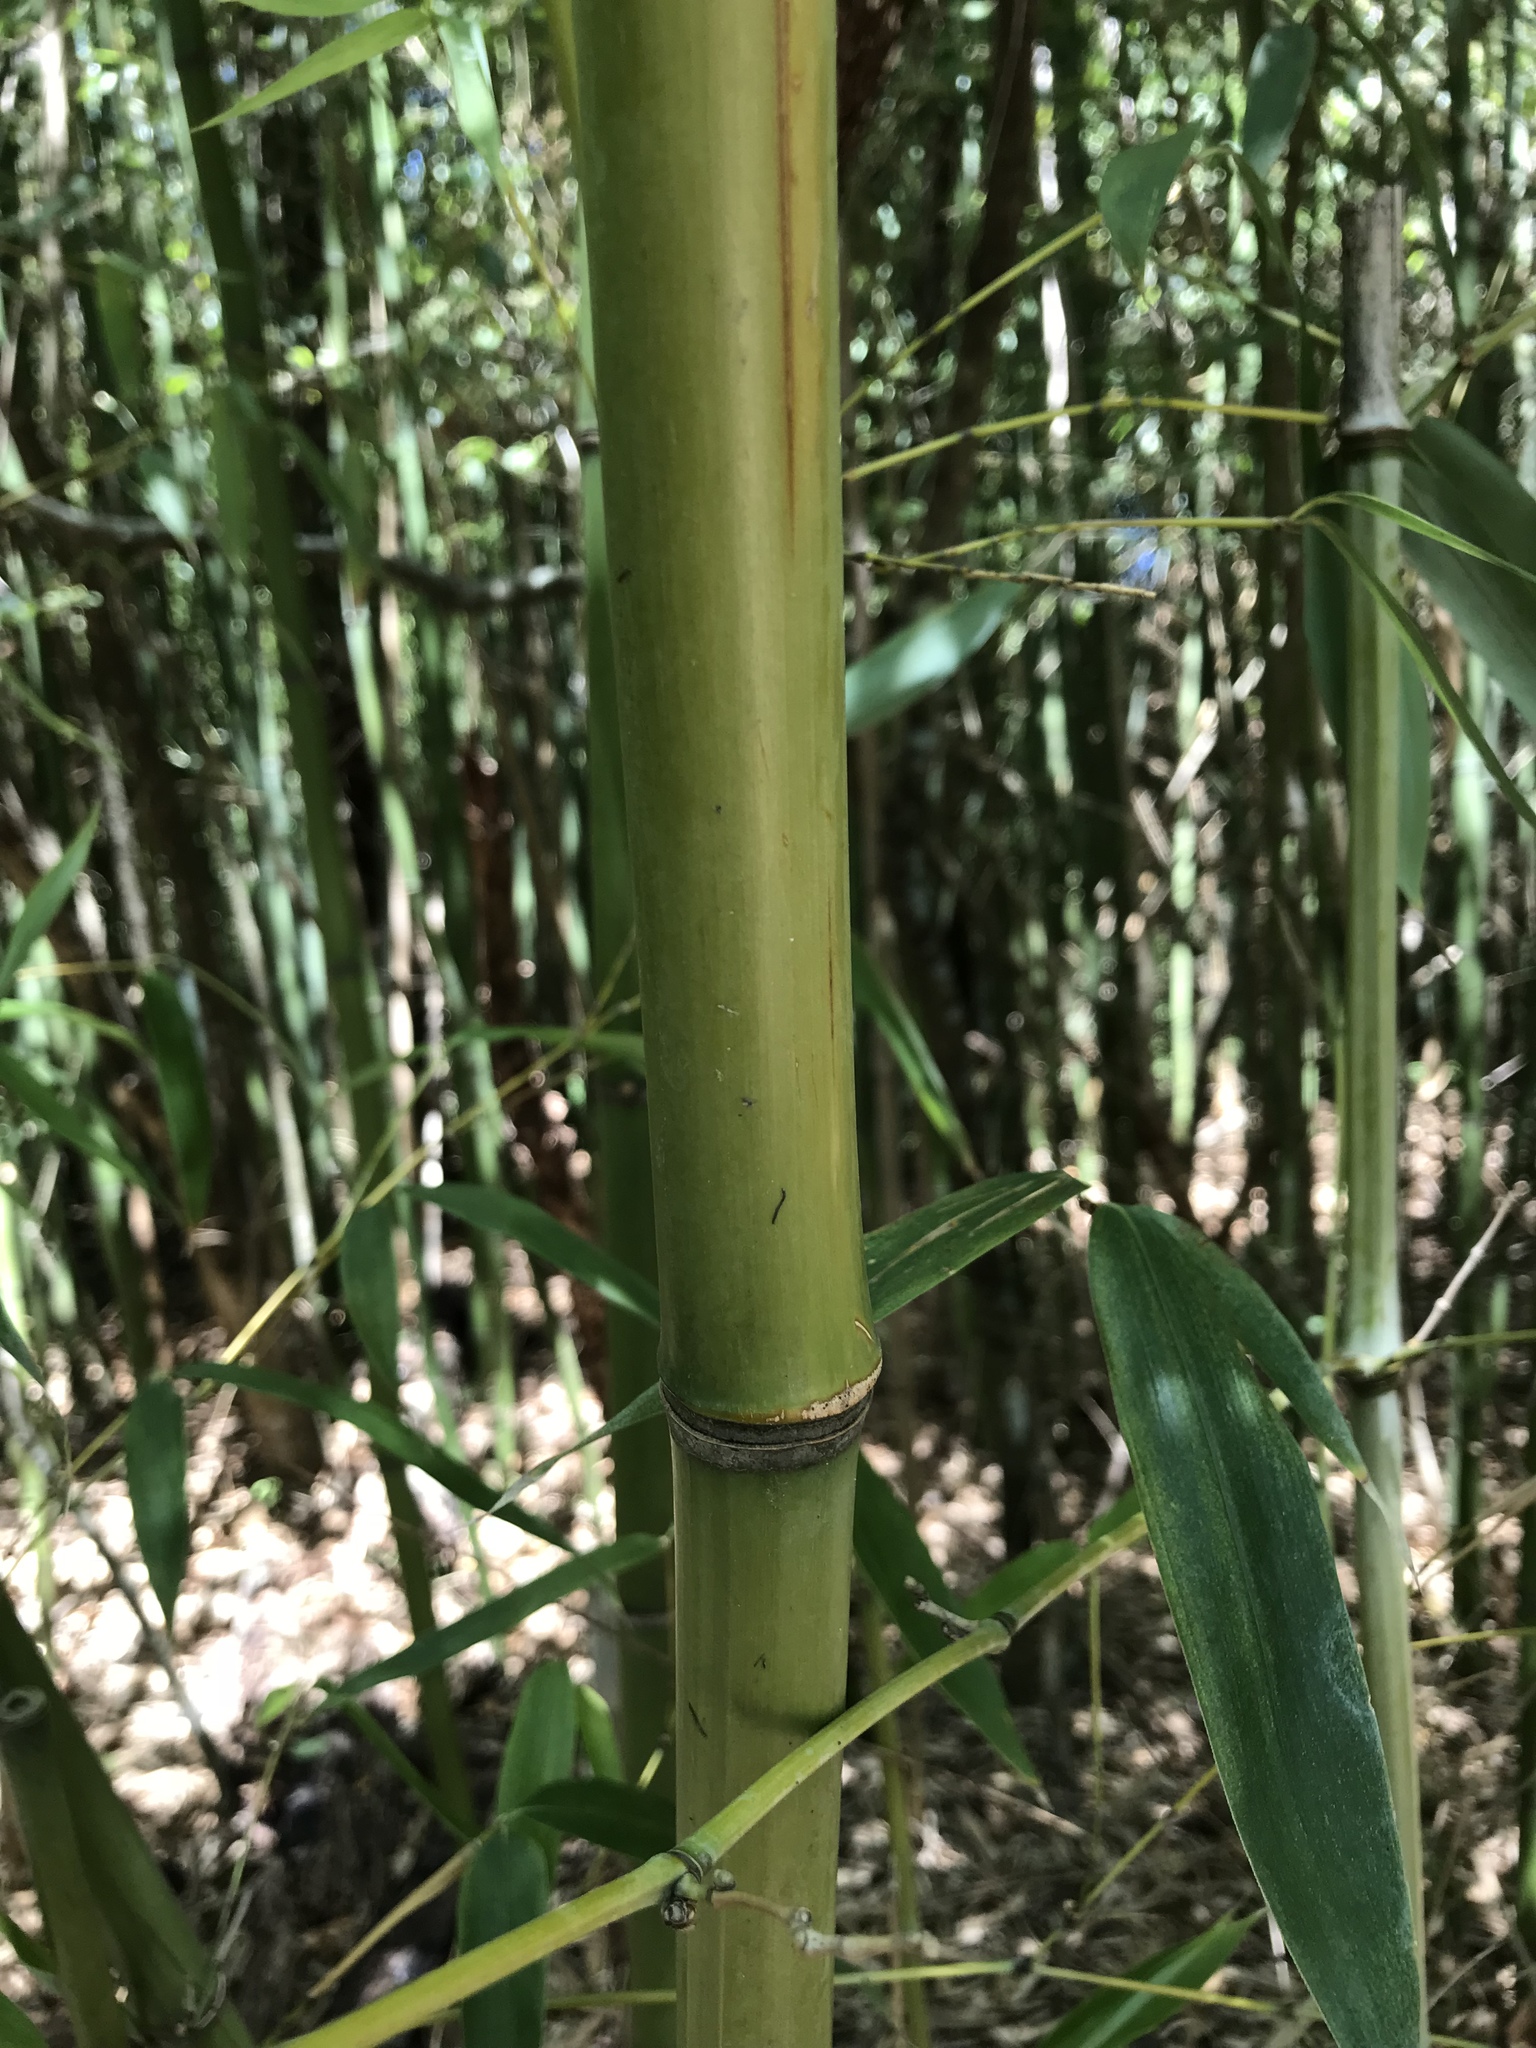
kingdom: Plantae
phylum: Tracheophyta
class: Liliopsida
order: Poales
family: Poaceae
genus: Phyllostachys
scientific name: Phyllostachys aurea
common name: Golden bamboo
